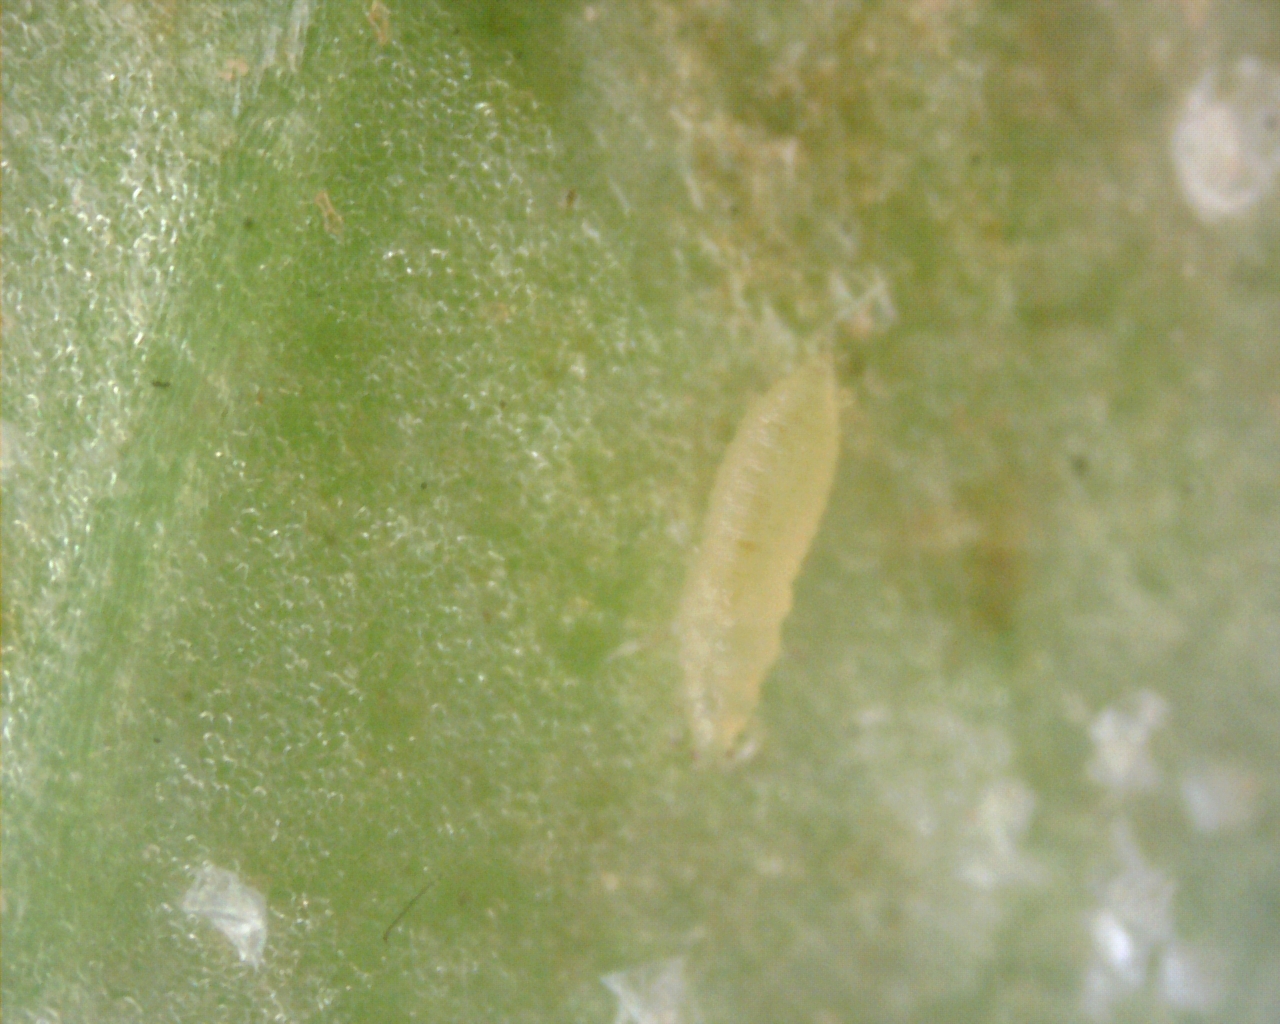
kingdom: Animalia
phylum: Arthropoda
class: Insecta
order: Thysanoptera
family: Thripidae
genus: Scolothrips
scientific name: Scolothrips sexmaculatus
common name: Common thrip
